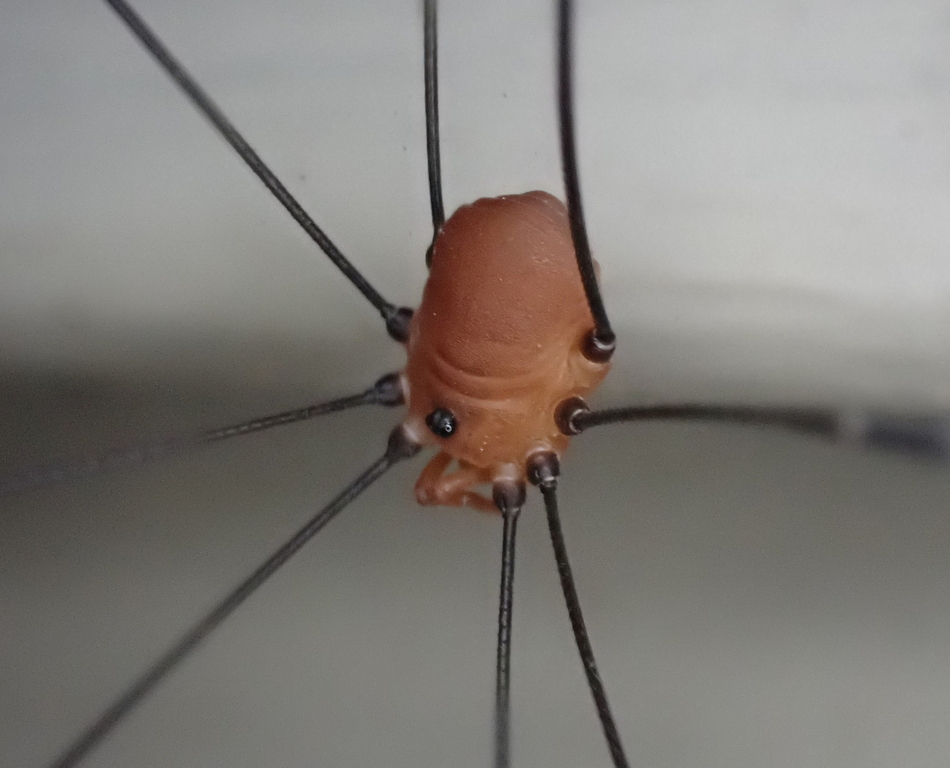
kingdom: Animalia
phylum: Arthropoda
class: Arachnida
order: Opiliones
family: Sclerosomatidae
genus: Leiobunum
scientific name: Leiobunum uxorium
